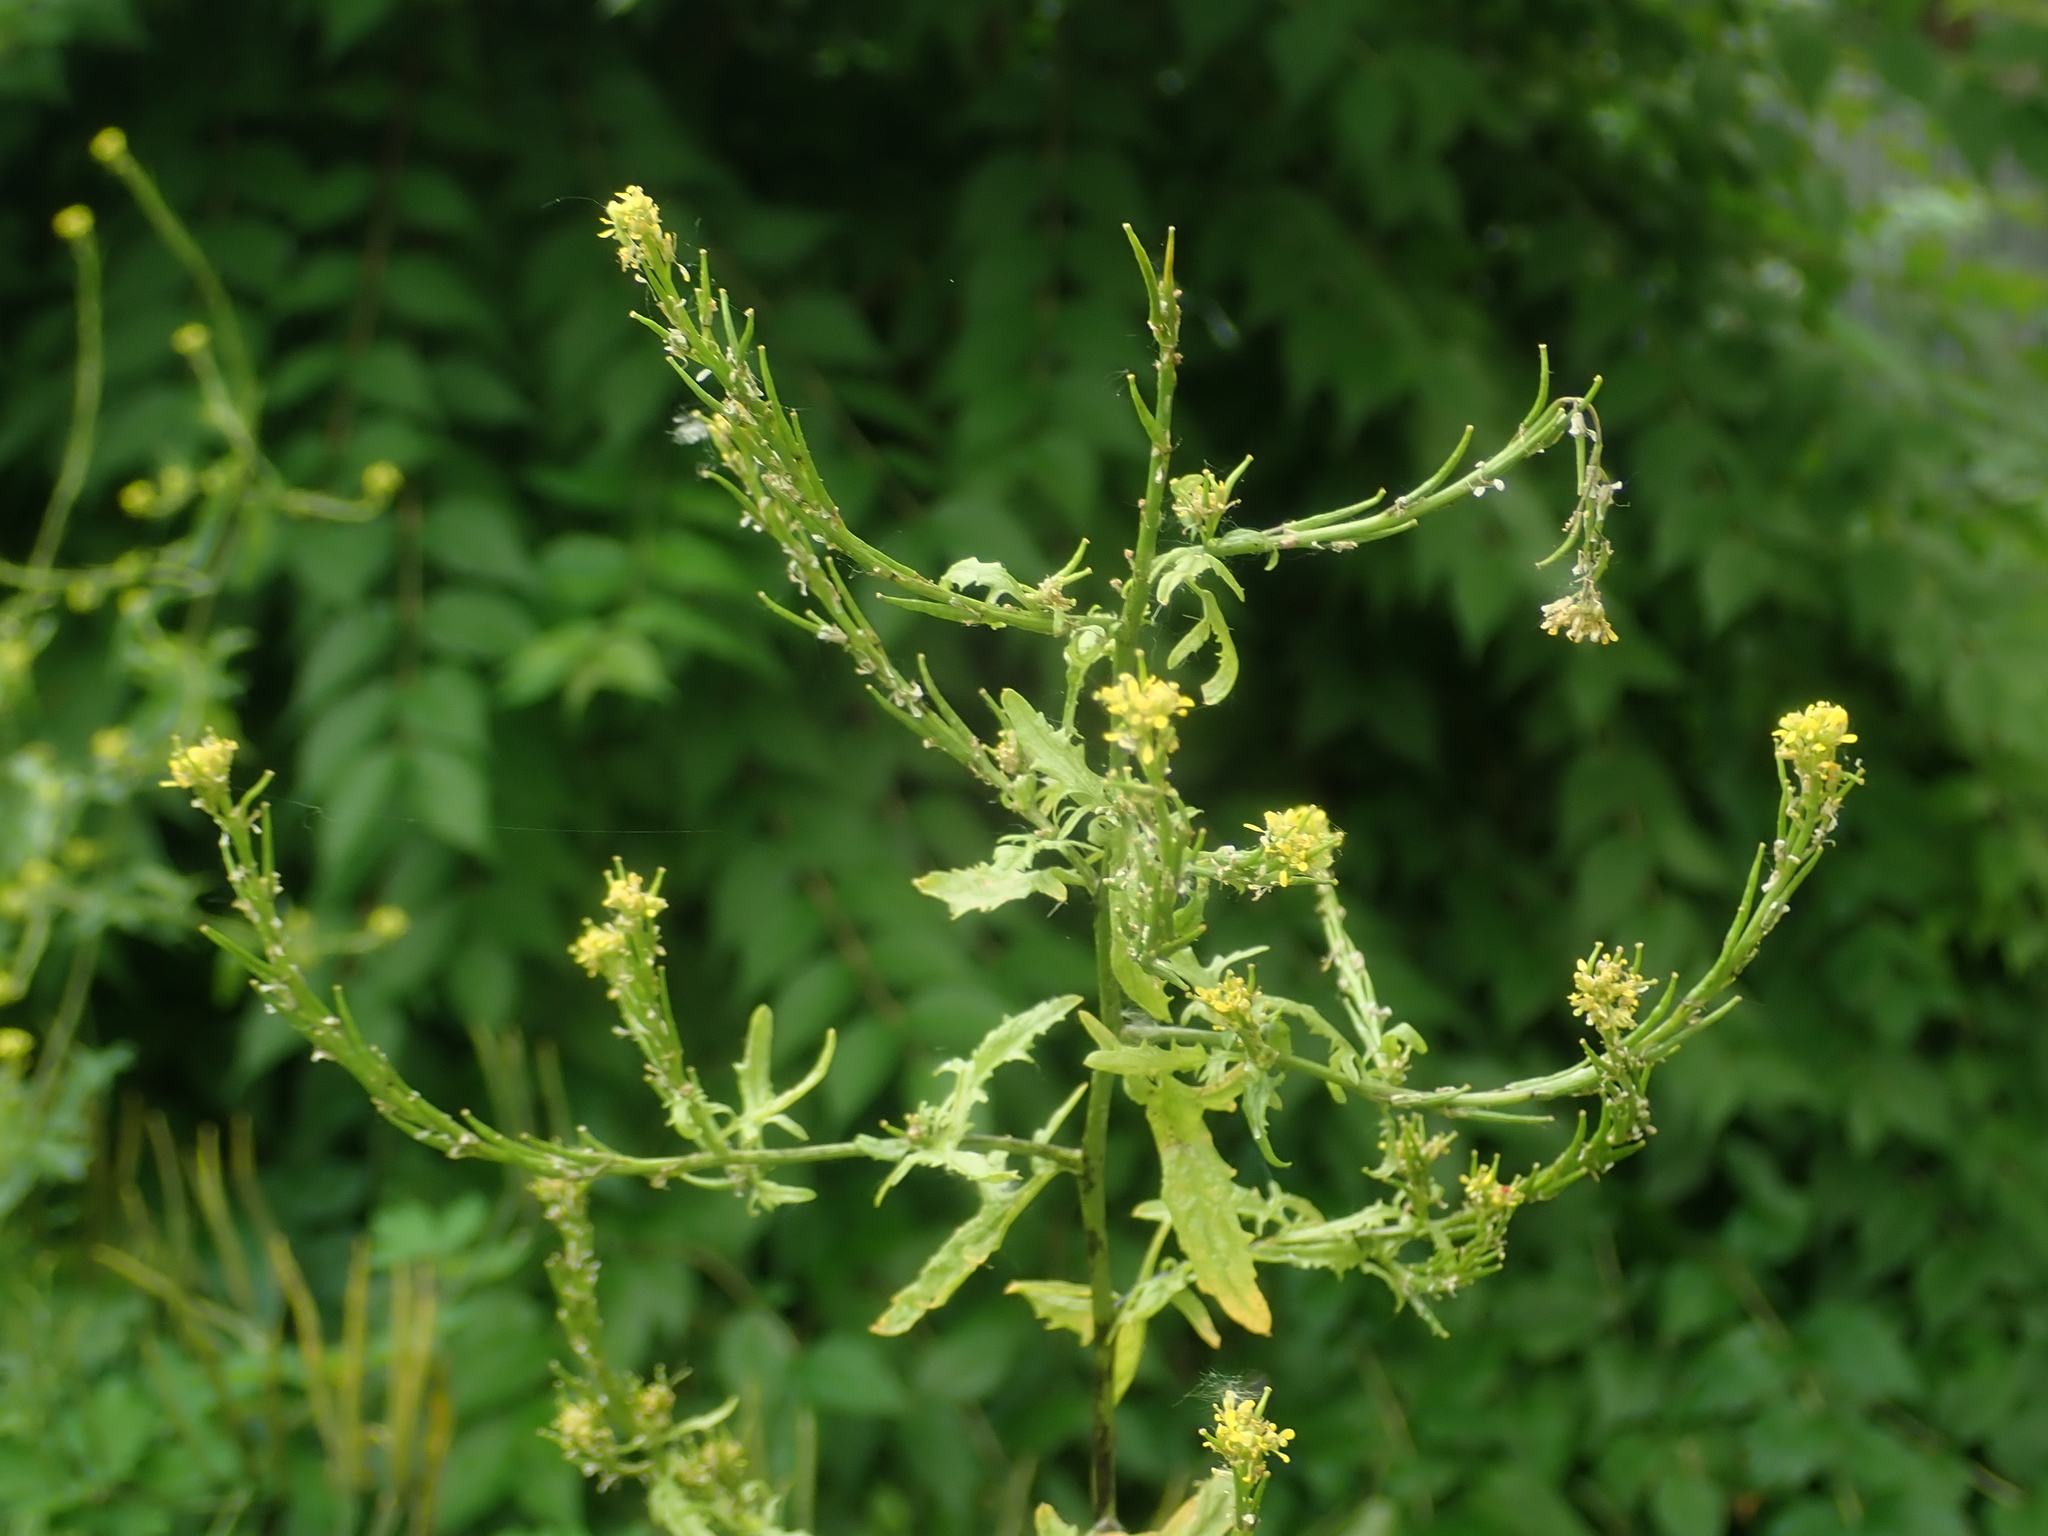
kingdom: Plantae
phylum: Tracheophyta
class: Magnoliopsida
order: Brassicales
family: Brassicaceae
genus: Sisymbrium
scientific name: Sisymbrium officinale
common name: Hedge mustard
